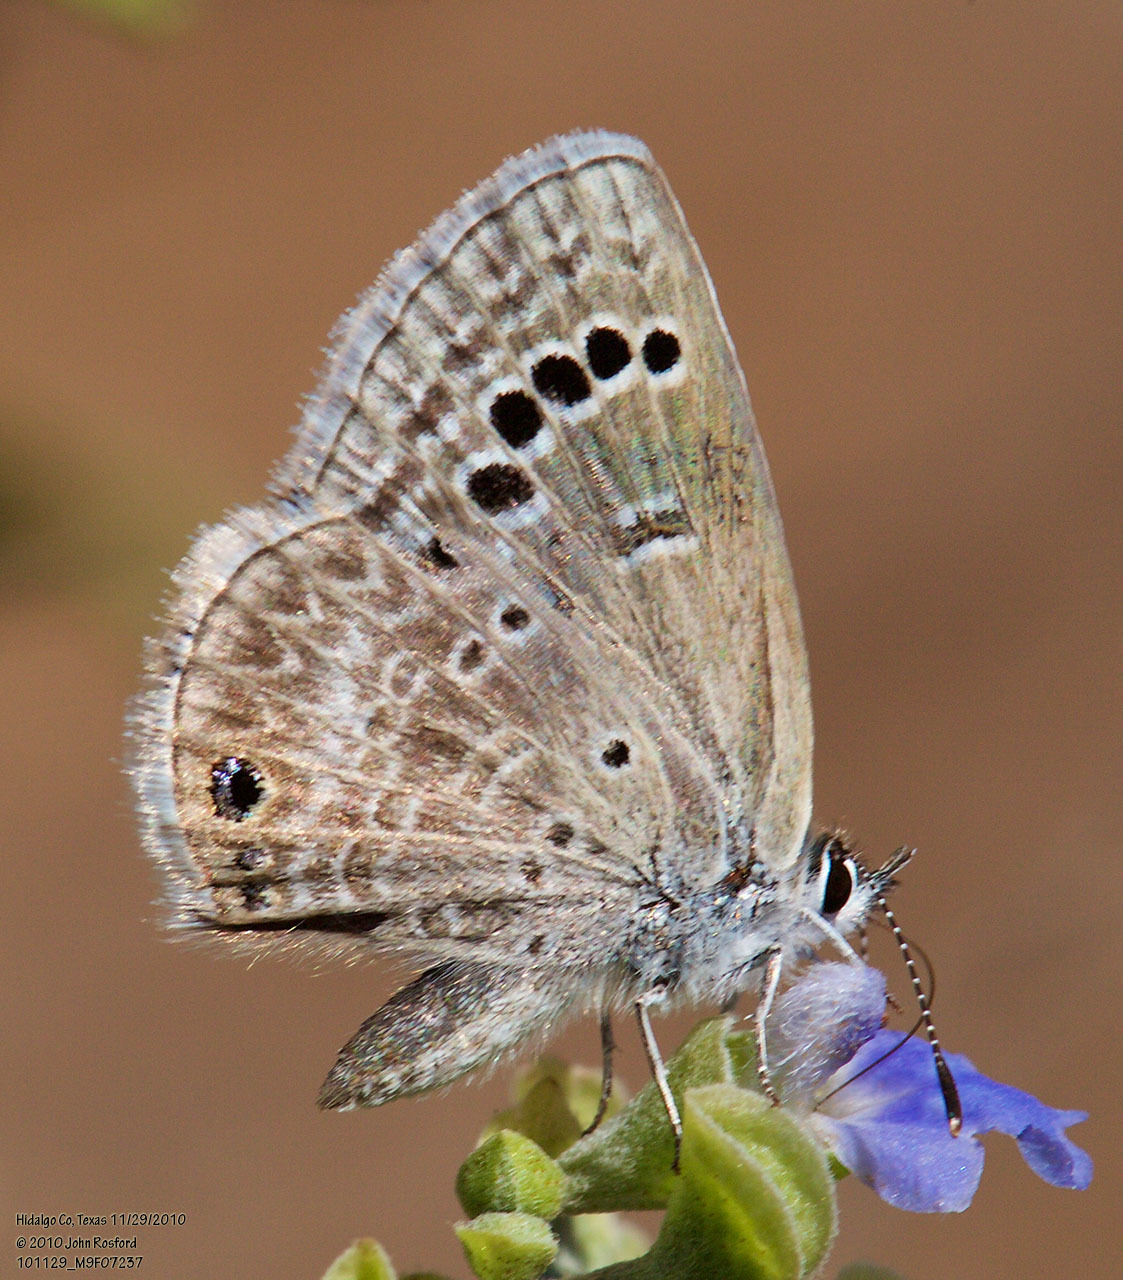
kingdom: Animalia
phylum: Arthropoda
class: Insecta
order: Lepidoptera
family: Lycaenidae
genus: Echinargus
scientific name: Echinargus isola
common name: Reakirt's blue
